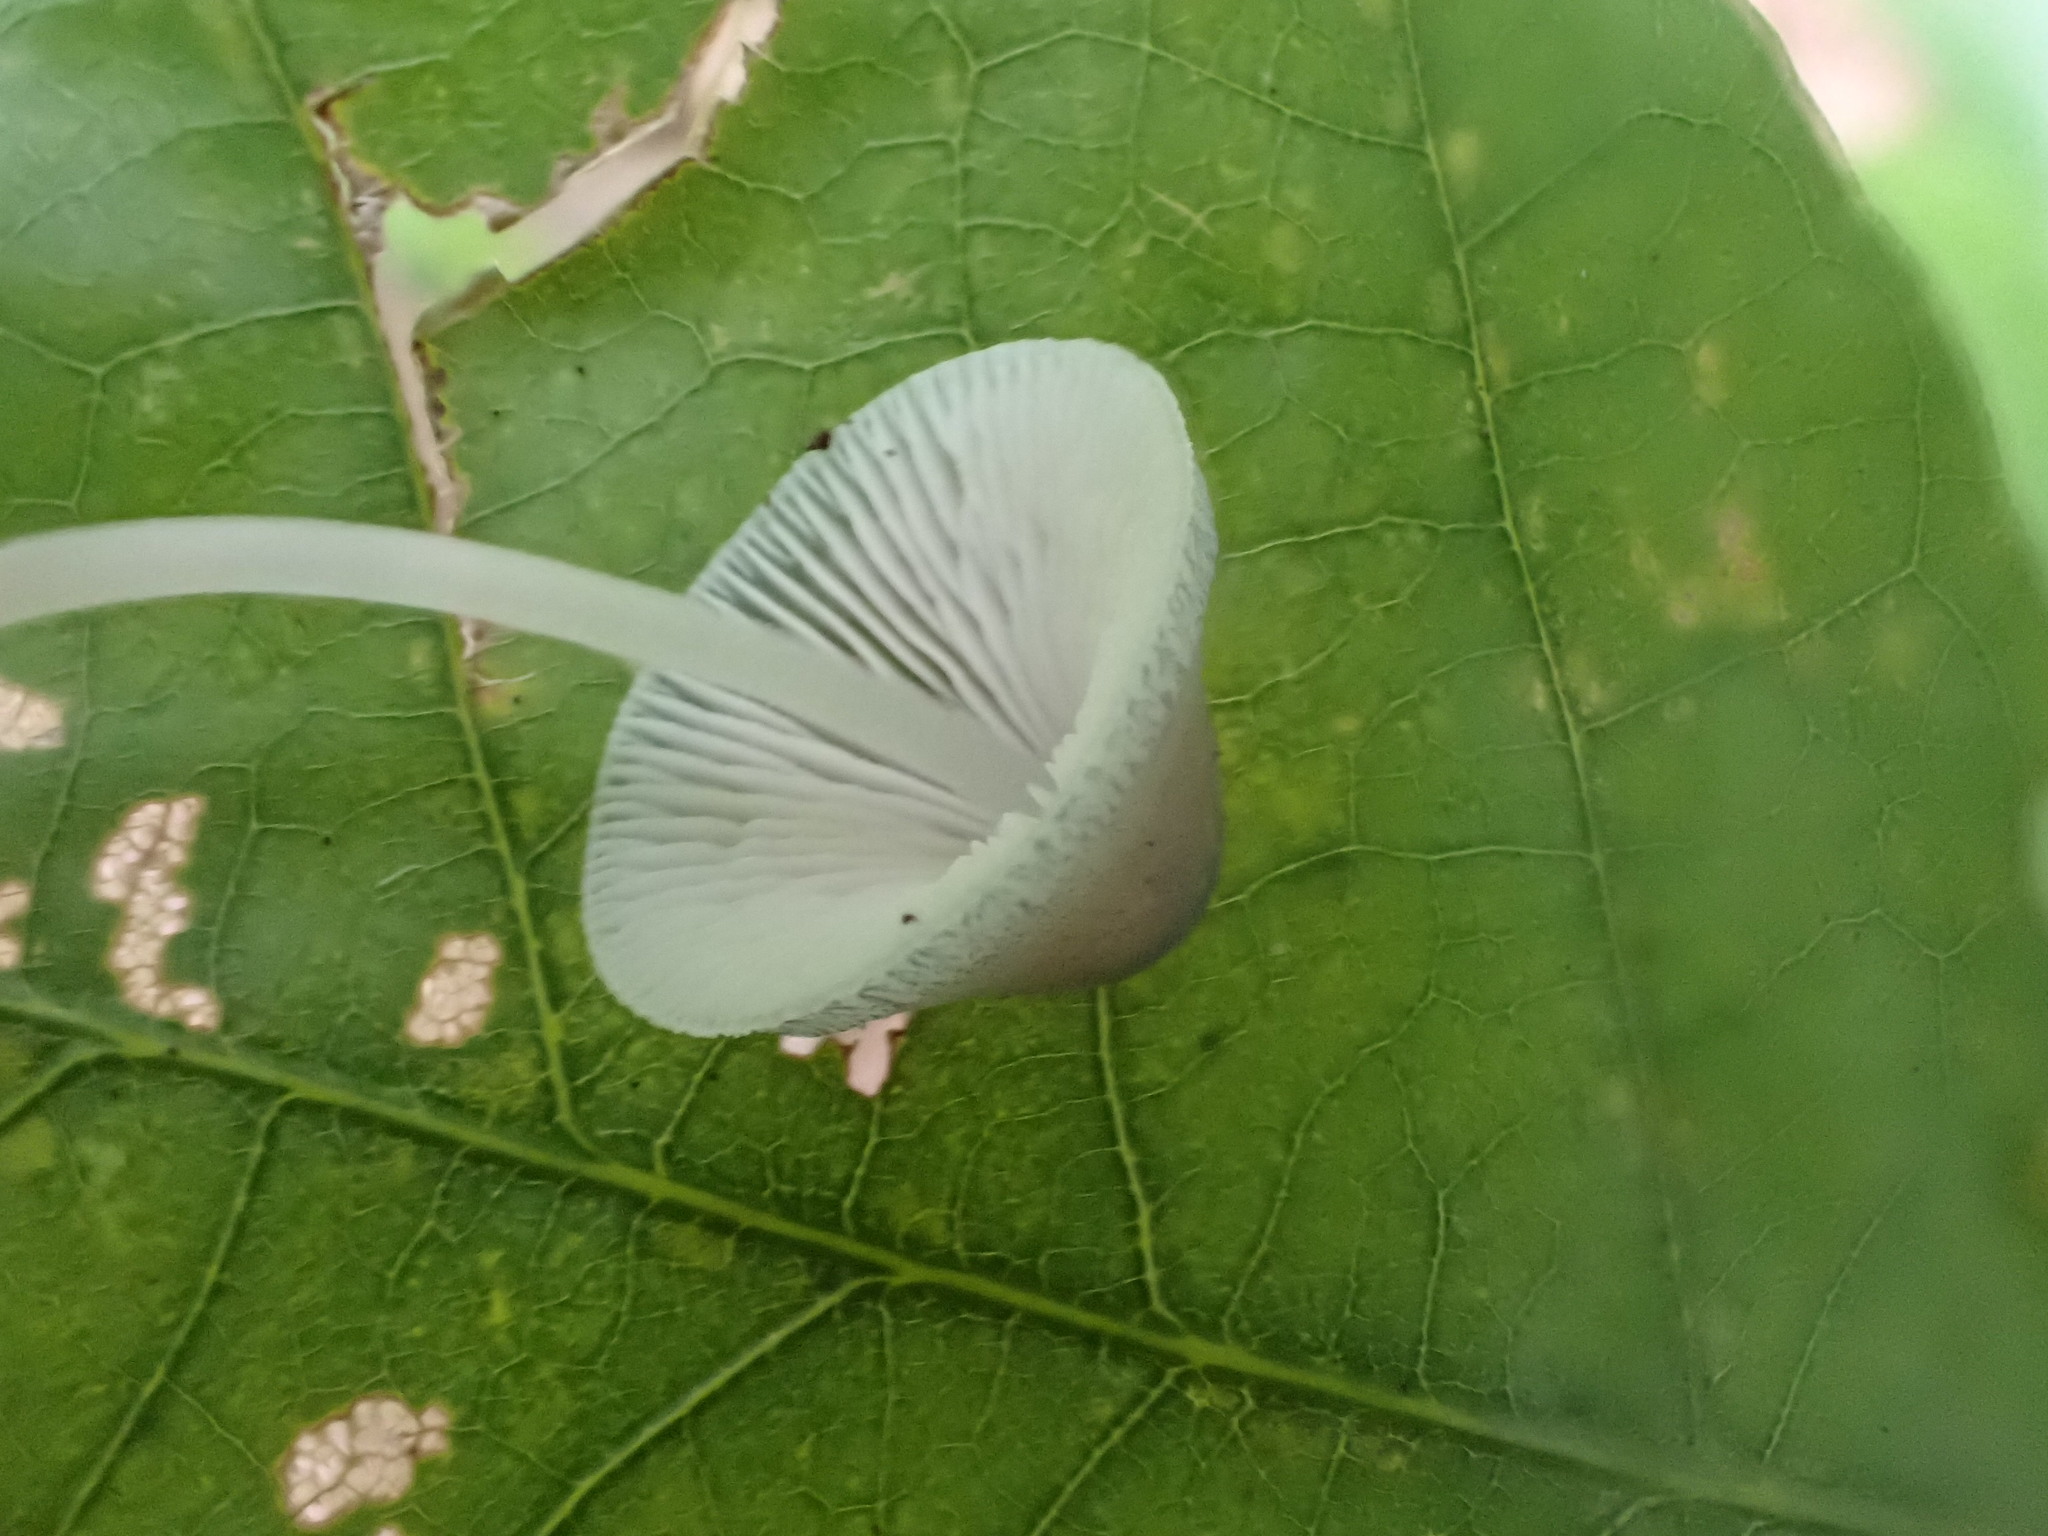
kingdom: Fungi
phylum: Basidiomycota
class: Agaricomycetes
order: Agaricales
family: Mycenaceae
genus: Mycena
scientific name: Mycena subcaerulea
